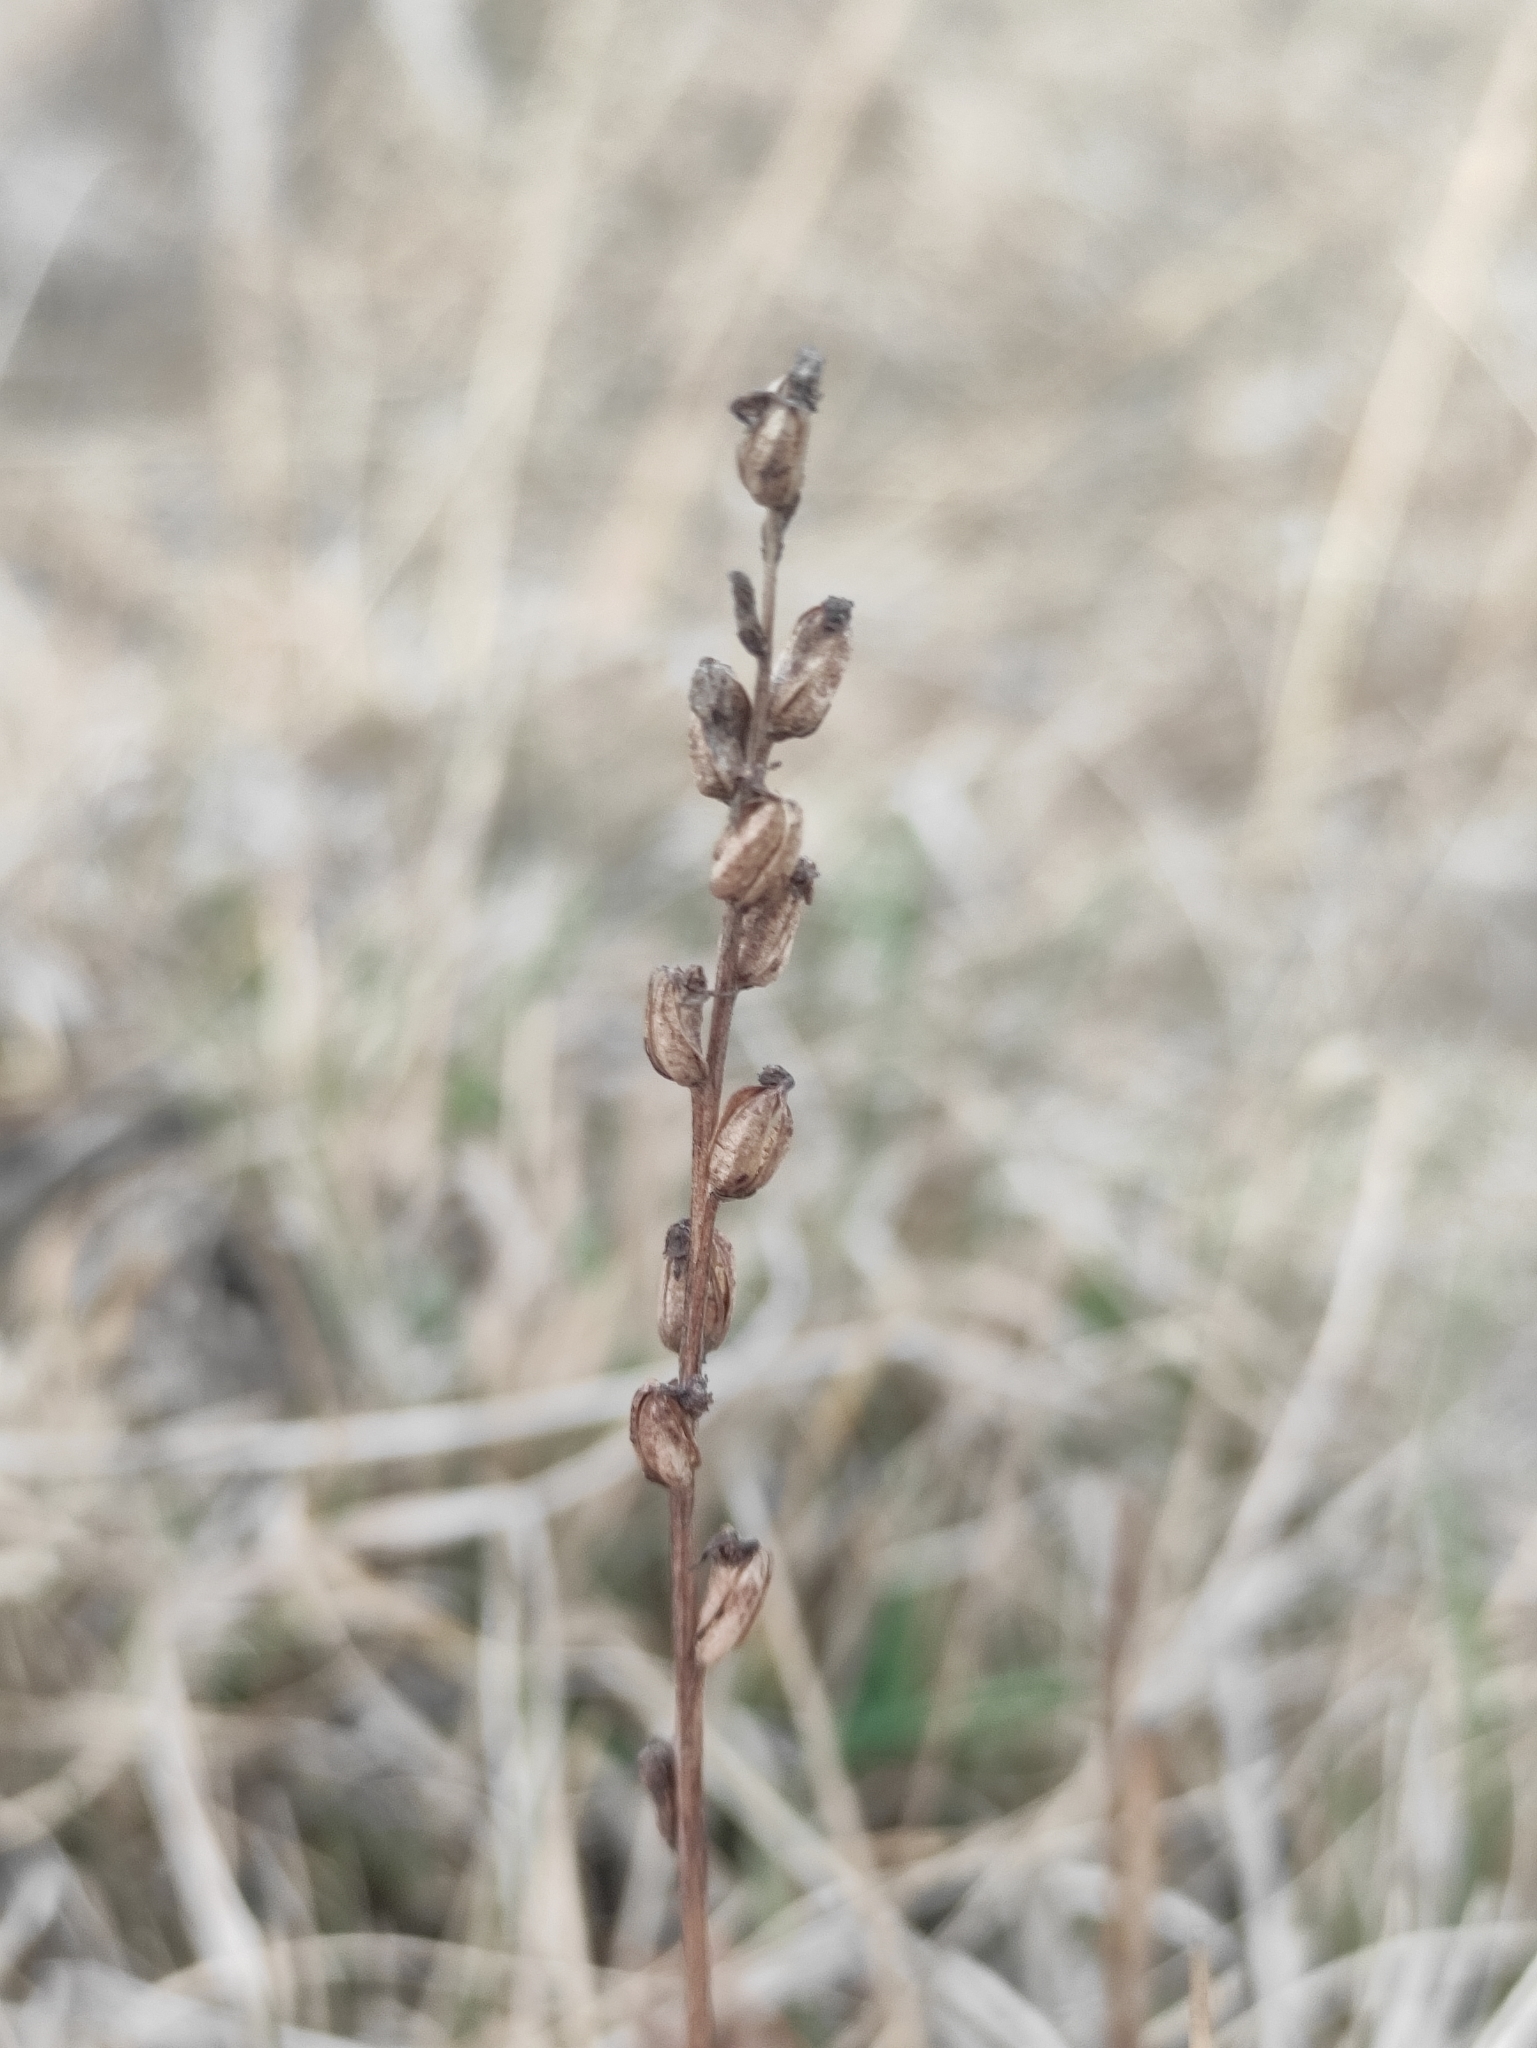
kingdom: Plantae
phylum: Tracheophyta
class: Liliopsida
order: Asparagales
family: Orchidaceae
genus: Herminium
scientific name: Herminium monorchis
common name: Musk orchid
